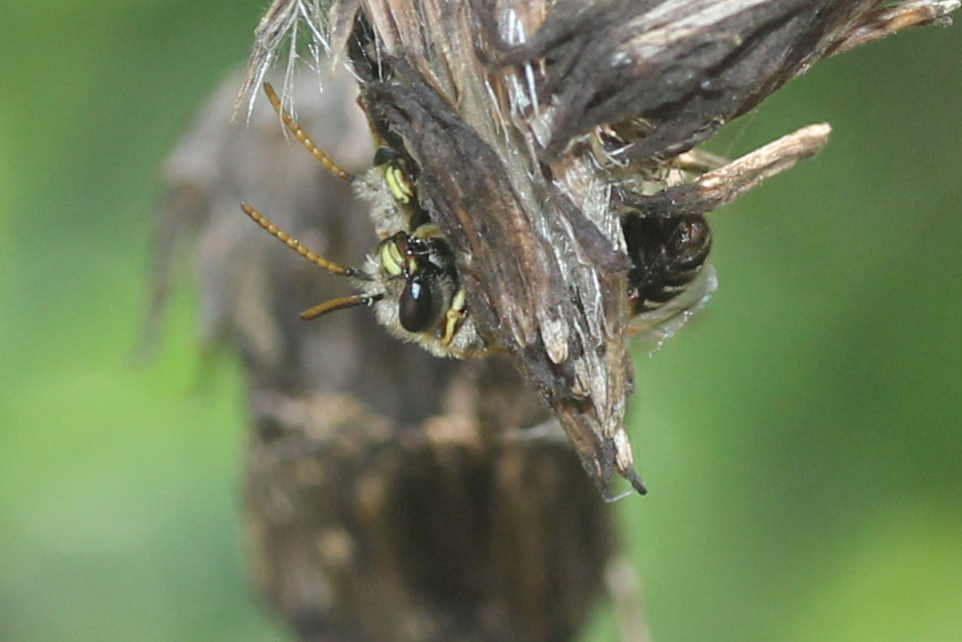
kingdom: Animalia
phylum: Arthropoda
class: Insecta
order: Hymenoptera
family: Halictidae
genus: Halictus
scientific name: Halictus ligatus
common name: Ligated furrow bee
